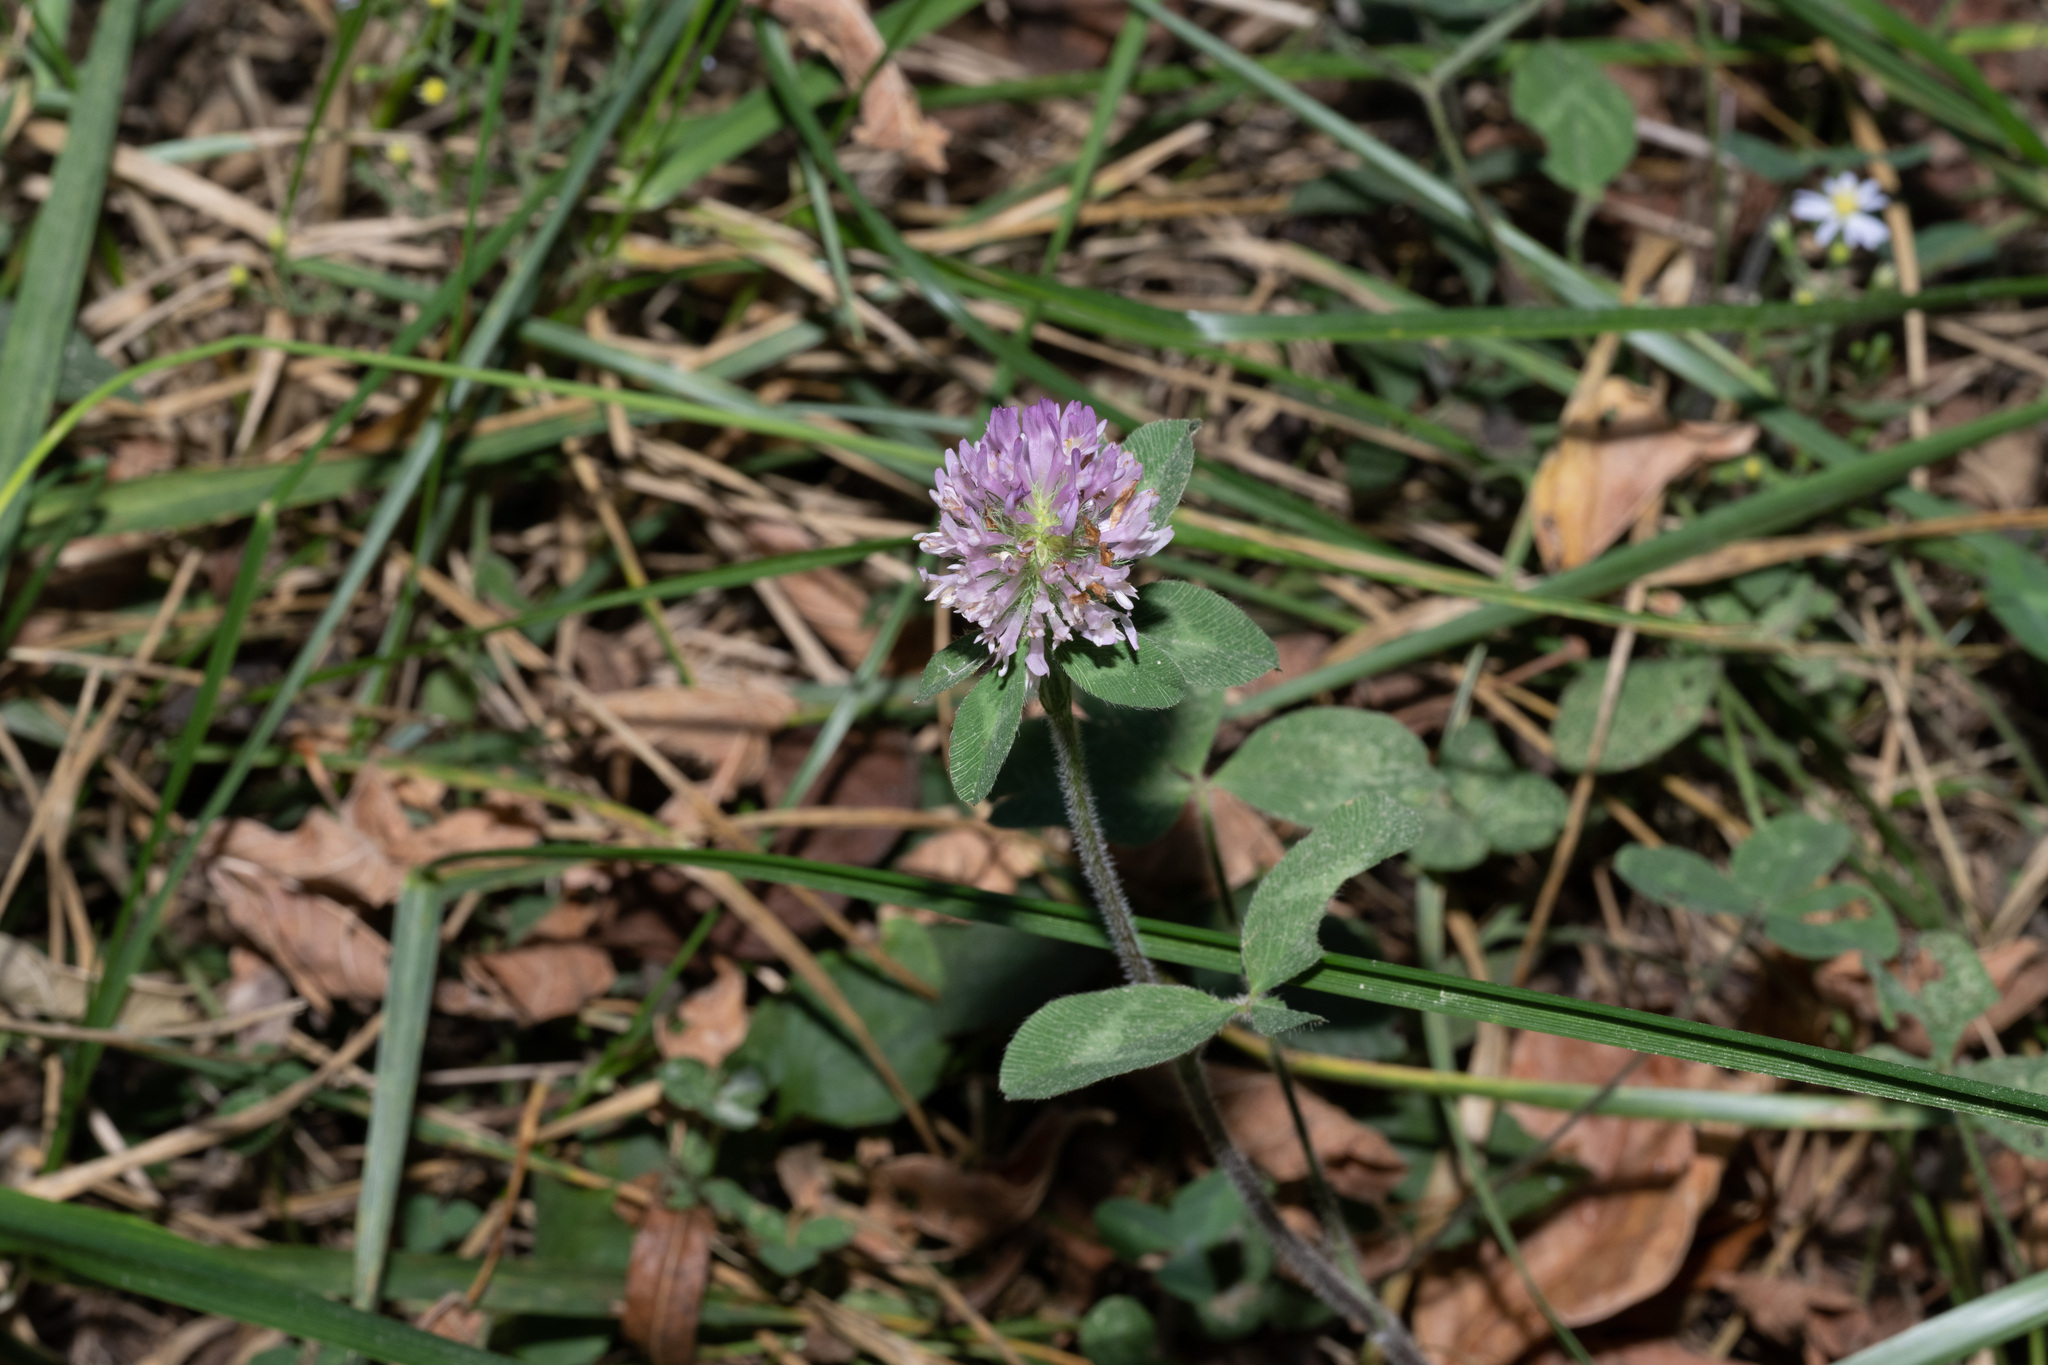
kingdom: Plantae
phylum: Tracheophyta
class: Magnoliopsida
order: Fabales
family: Fabaceae
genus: Trifolium
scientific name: Trifolium pratense
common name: Red clover
